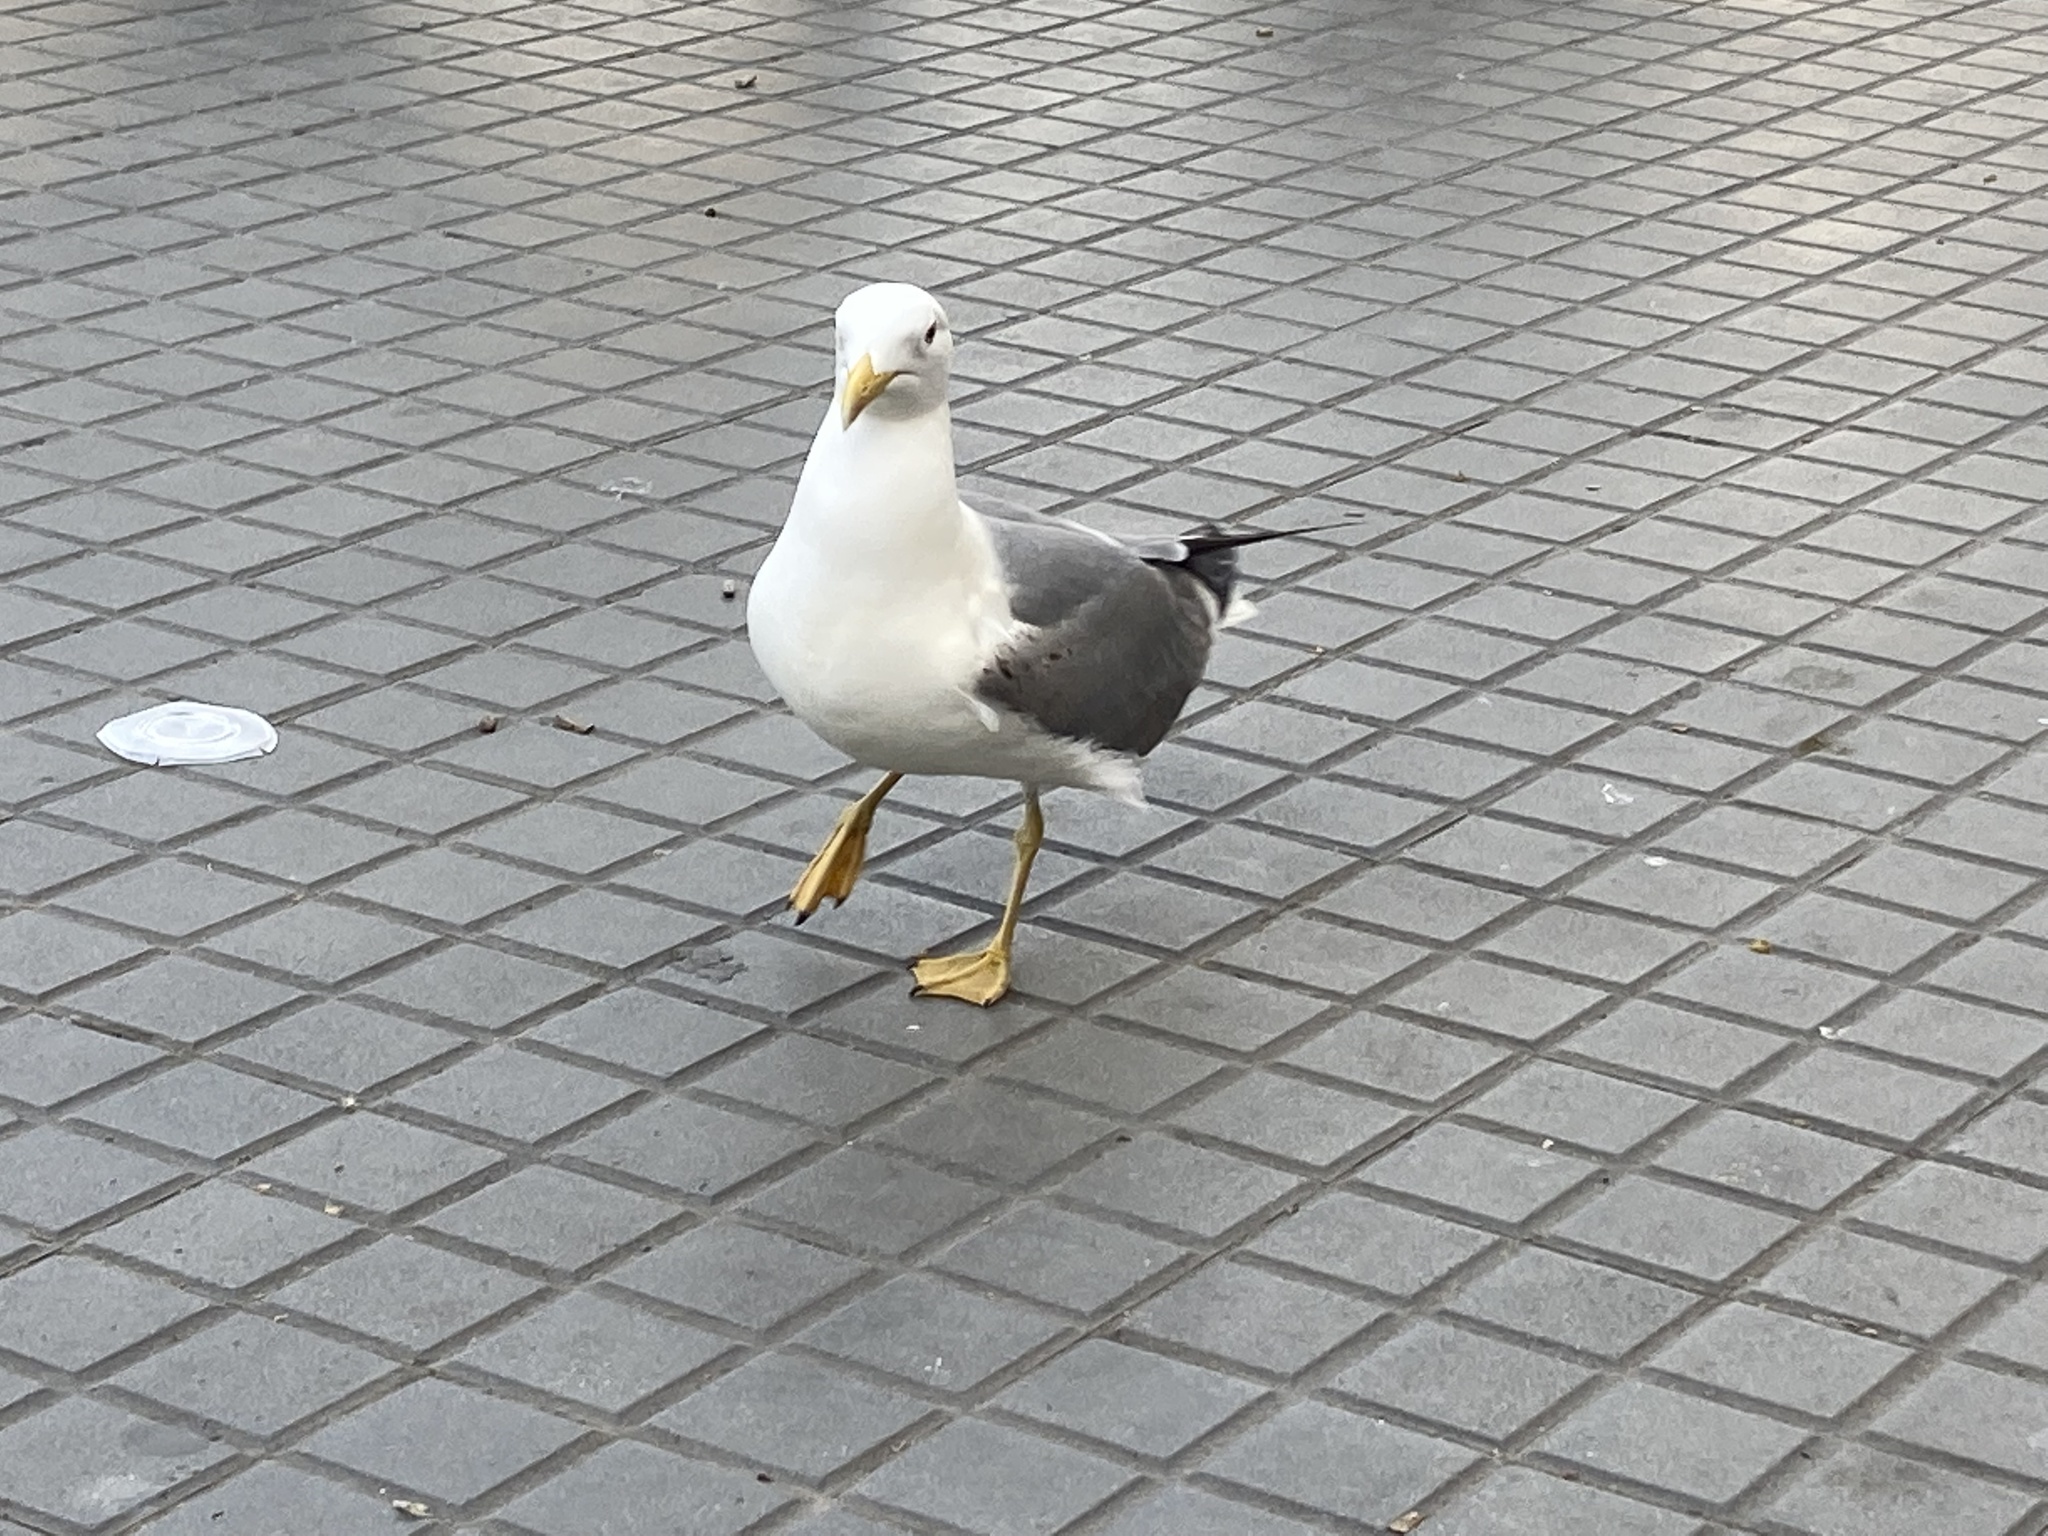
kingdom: Animalia
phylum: Chordata
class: Aves
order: Charadriiformes
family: Laridae
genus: Larus
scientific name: Larus michahellis
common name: Yellow-legged gull
